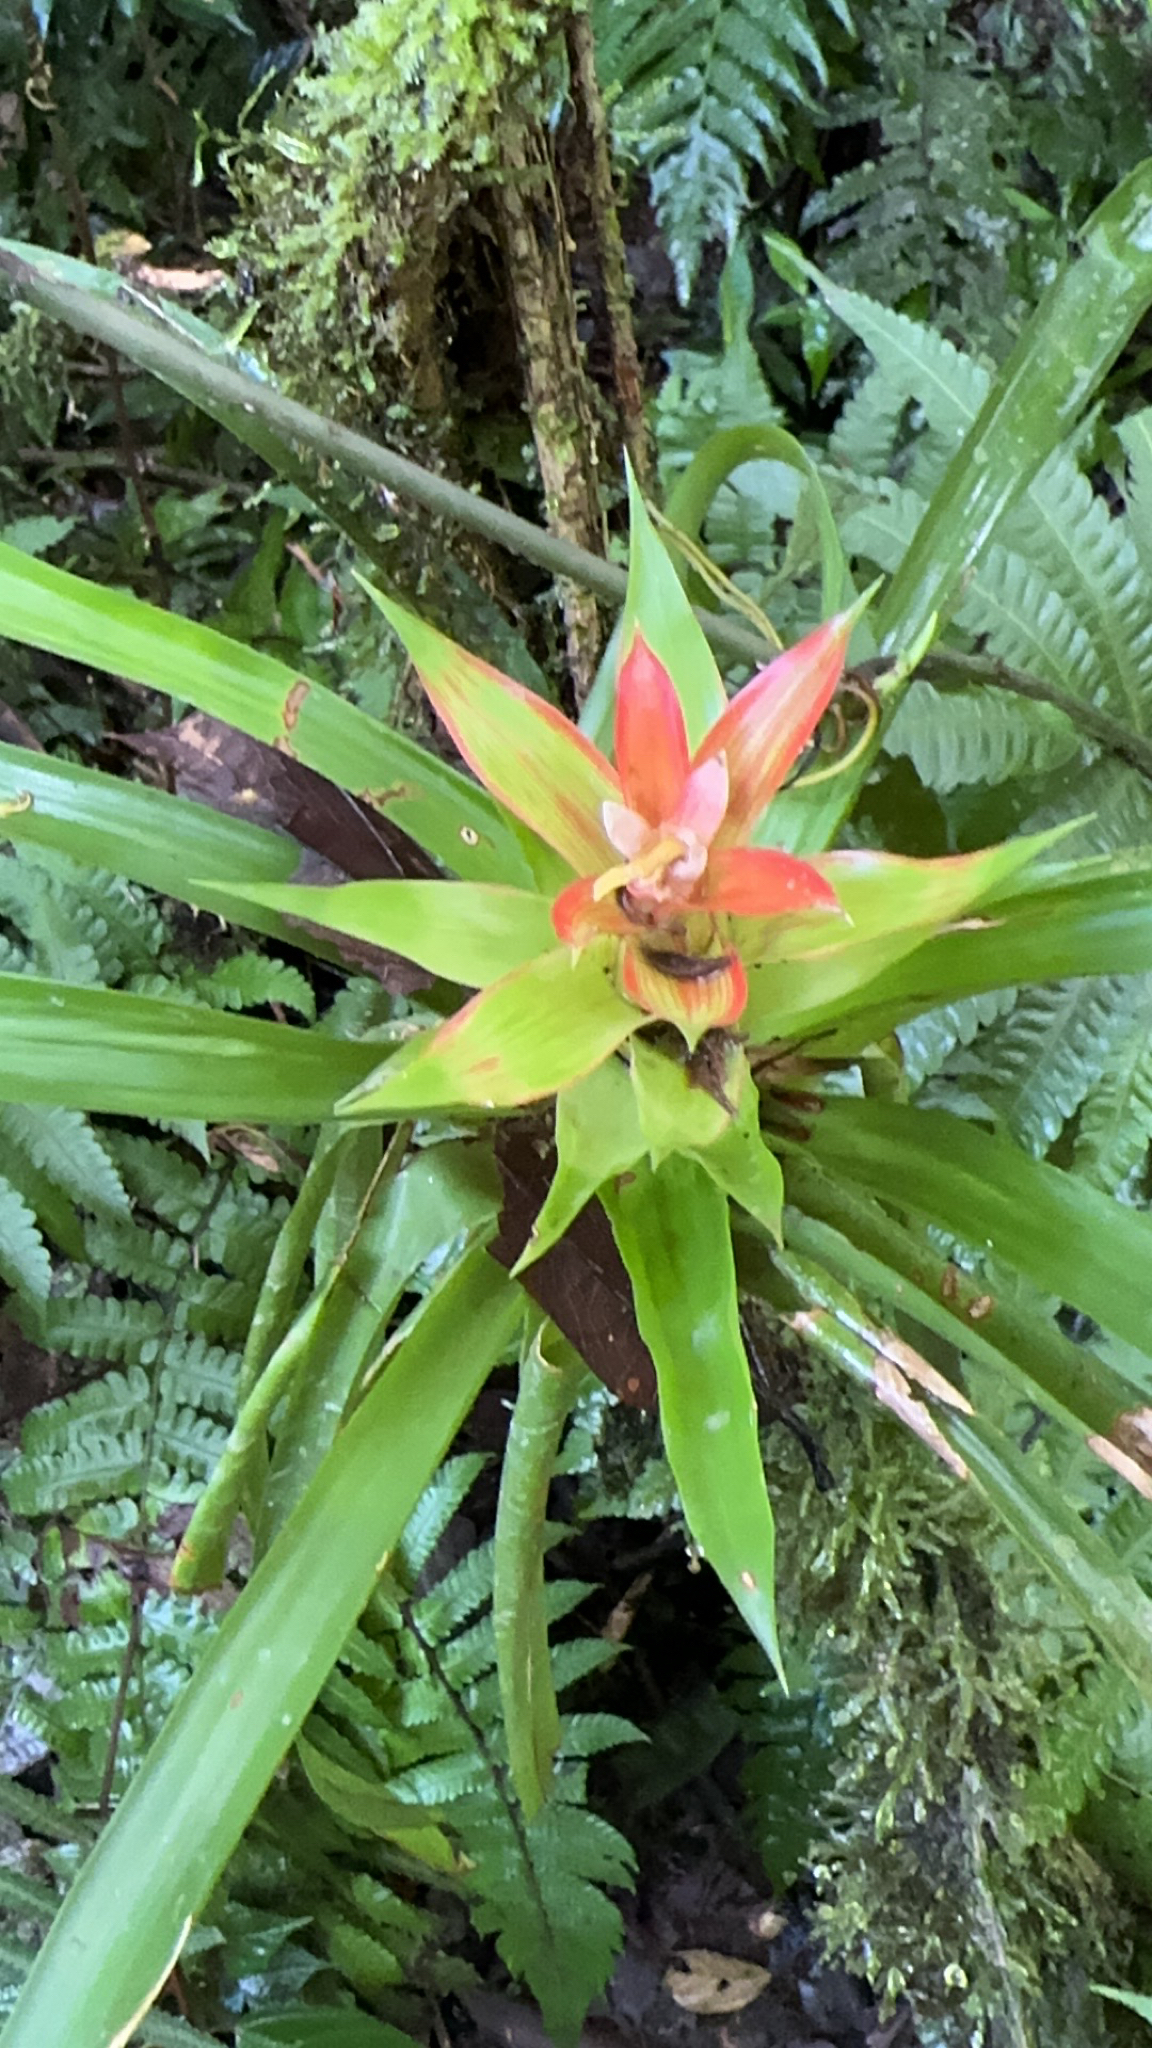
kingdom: Plantae
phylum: Tracheophyta
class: Liliopsida
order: Poales
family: Bromeliaceae
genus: Guzmania
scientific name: Guzmania lingulata
